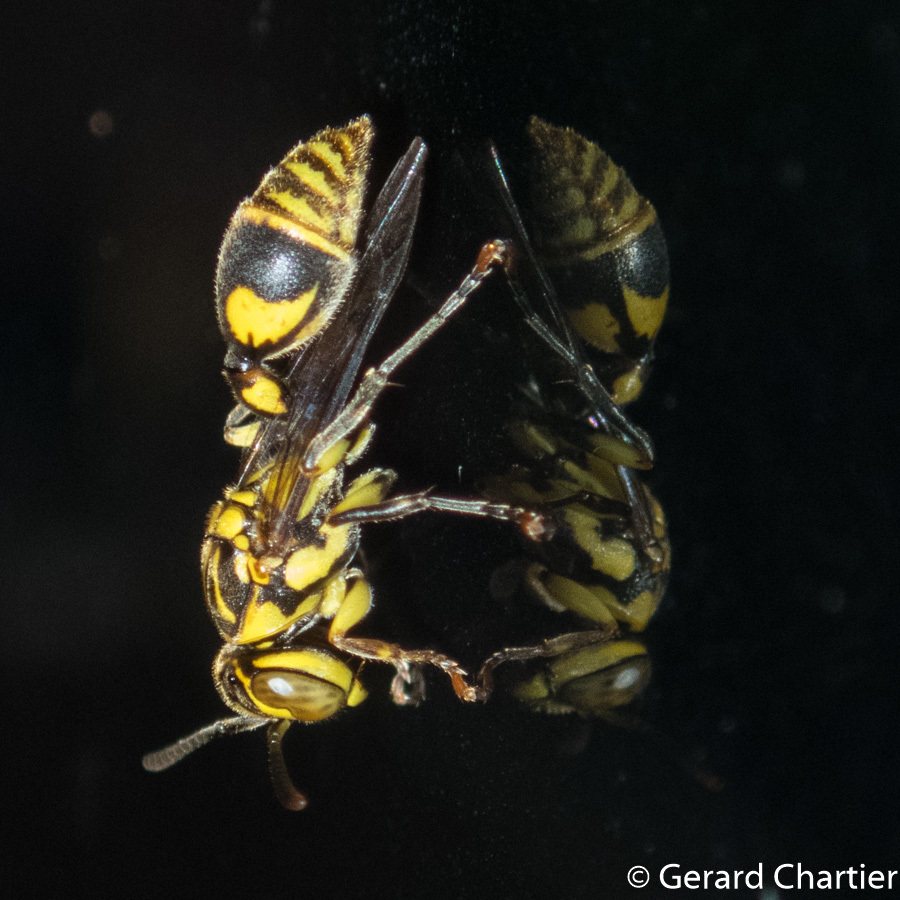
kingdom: Animalia
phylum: Arthropoda
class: Insecta
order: Hymenoptera
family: Vespidae
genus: Ropalidia
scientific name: Ropalidia ornaticeps
